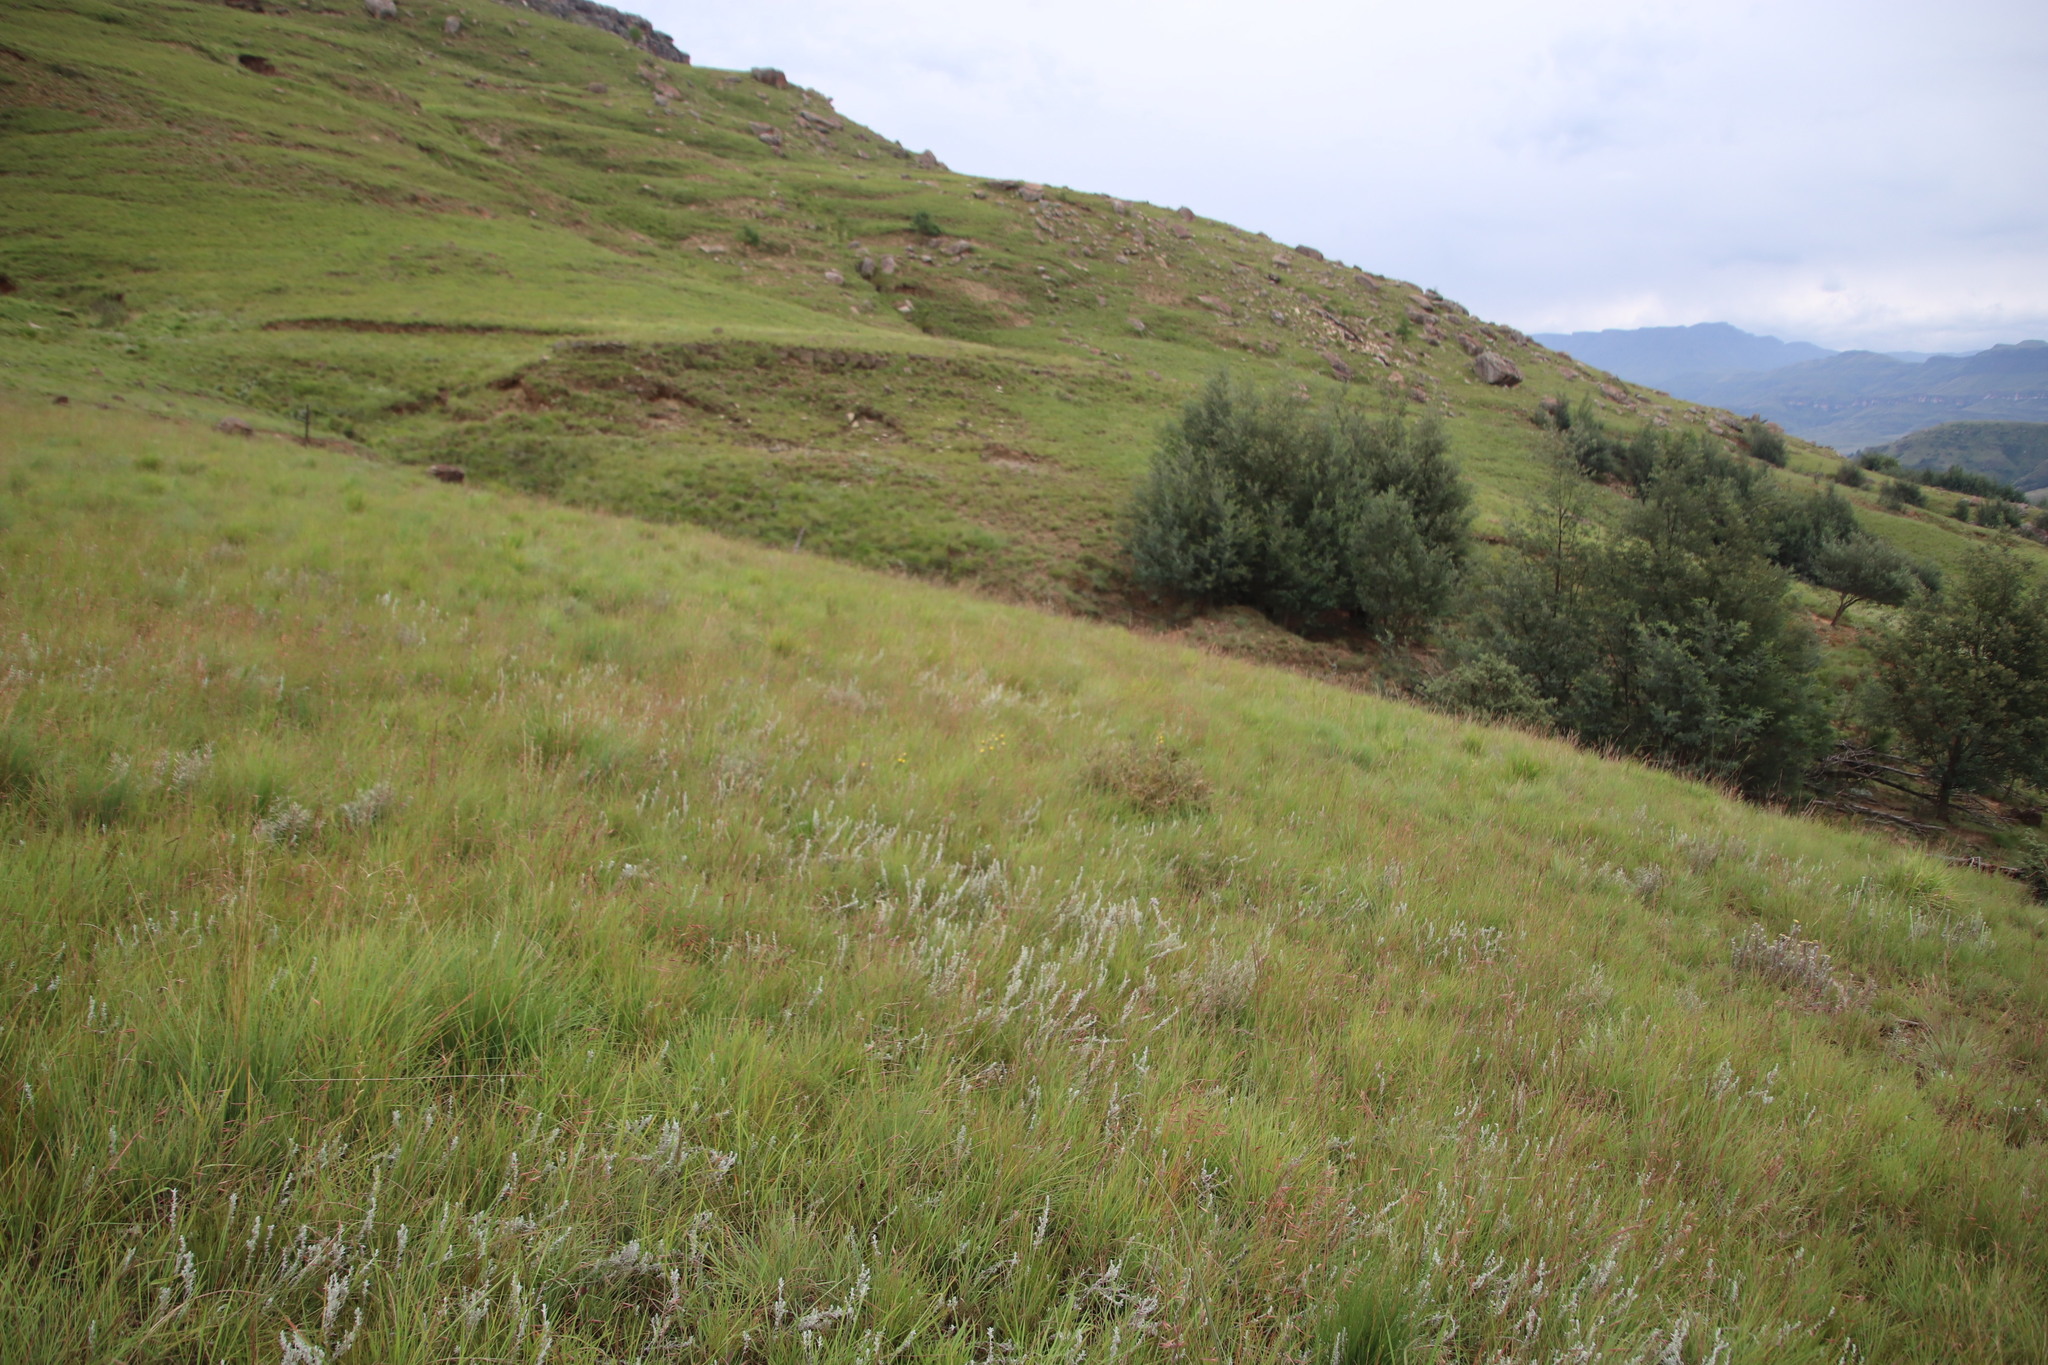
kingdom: Plantae
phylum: Tracheophyta
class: Magnoliopsida
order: Fabales
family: Fabaceae
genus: Acacia
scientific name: Acacia dealbata
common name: Silver wattle
